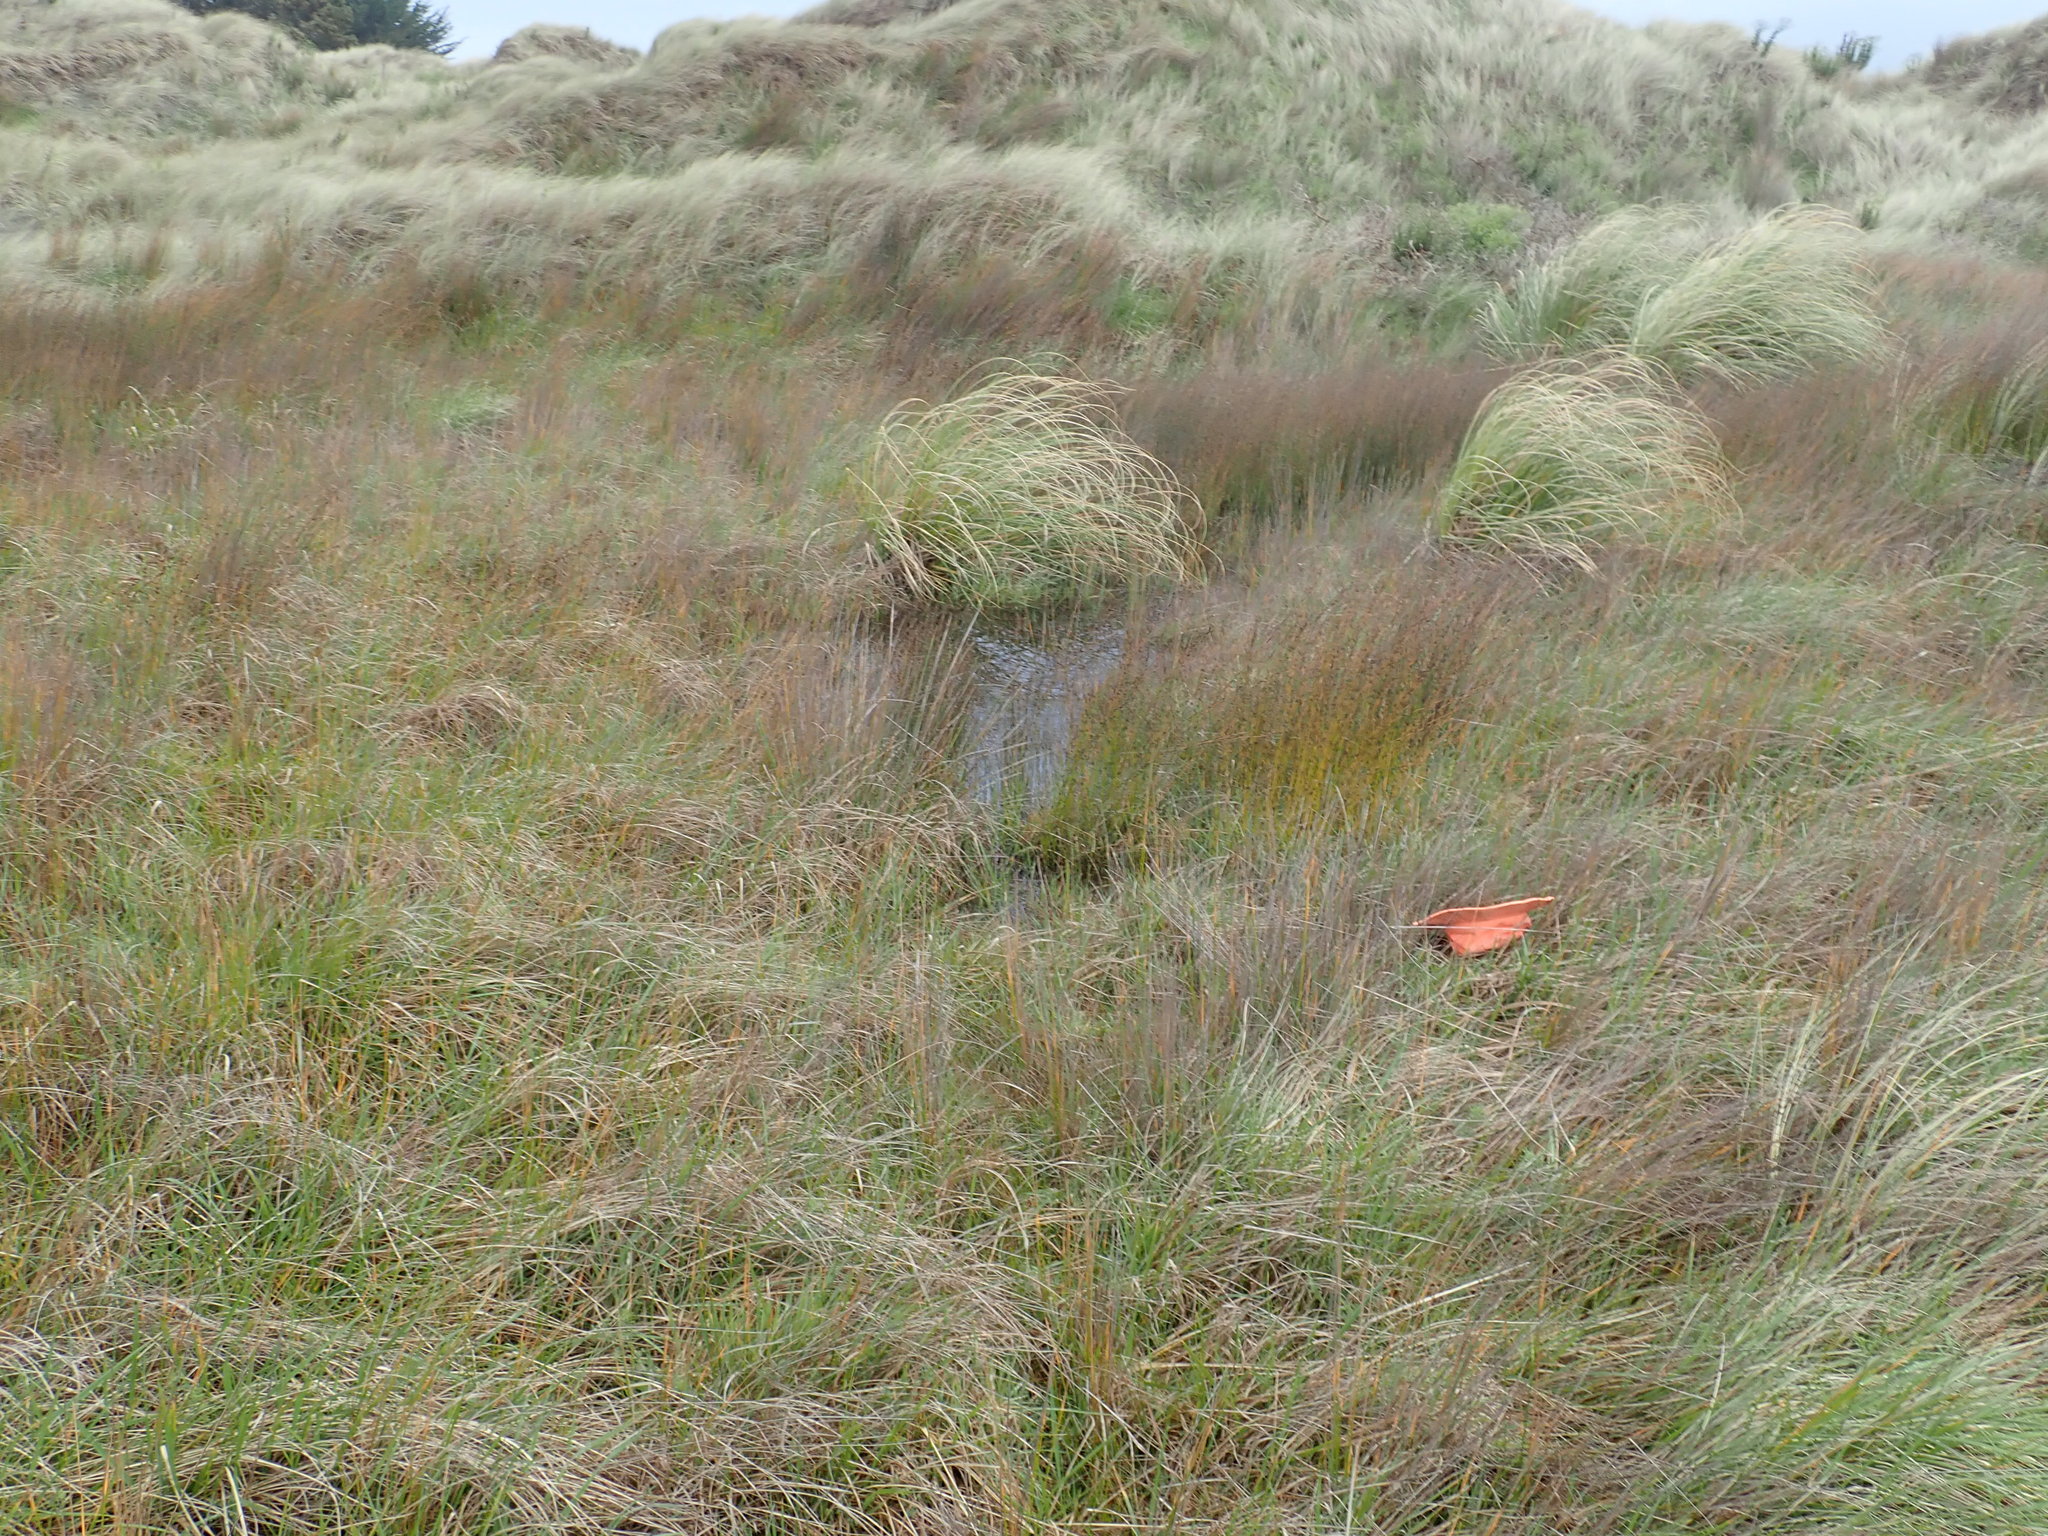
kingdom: Animalia
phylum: Arthropoda
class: Malacostraca
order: Isopoda
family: Porcellionidae
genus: Porcellio
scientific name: Porcellio scaber
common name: Common rough woodlouse
